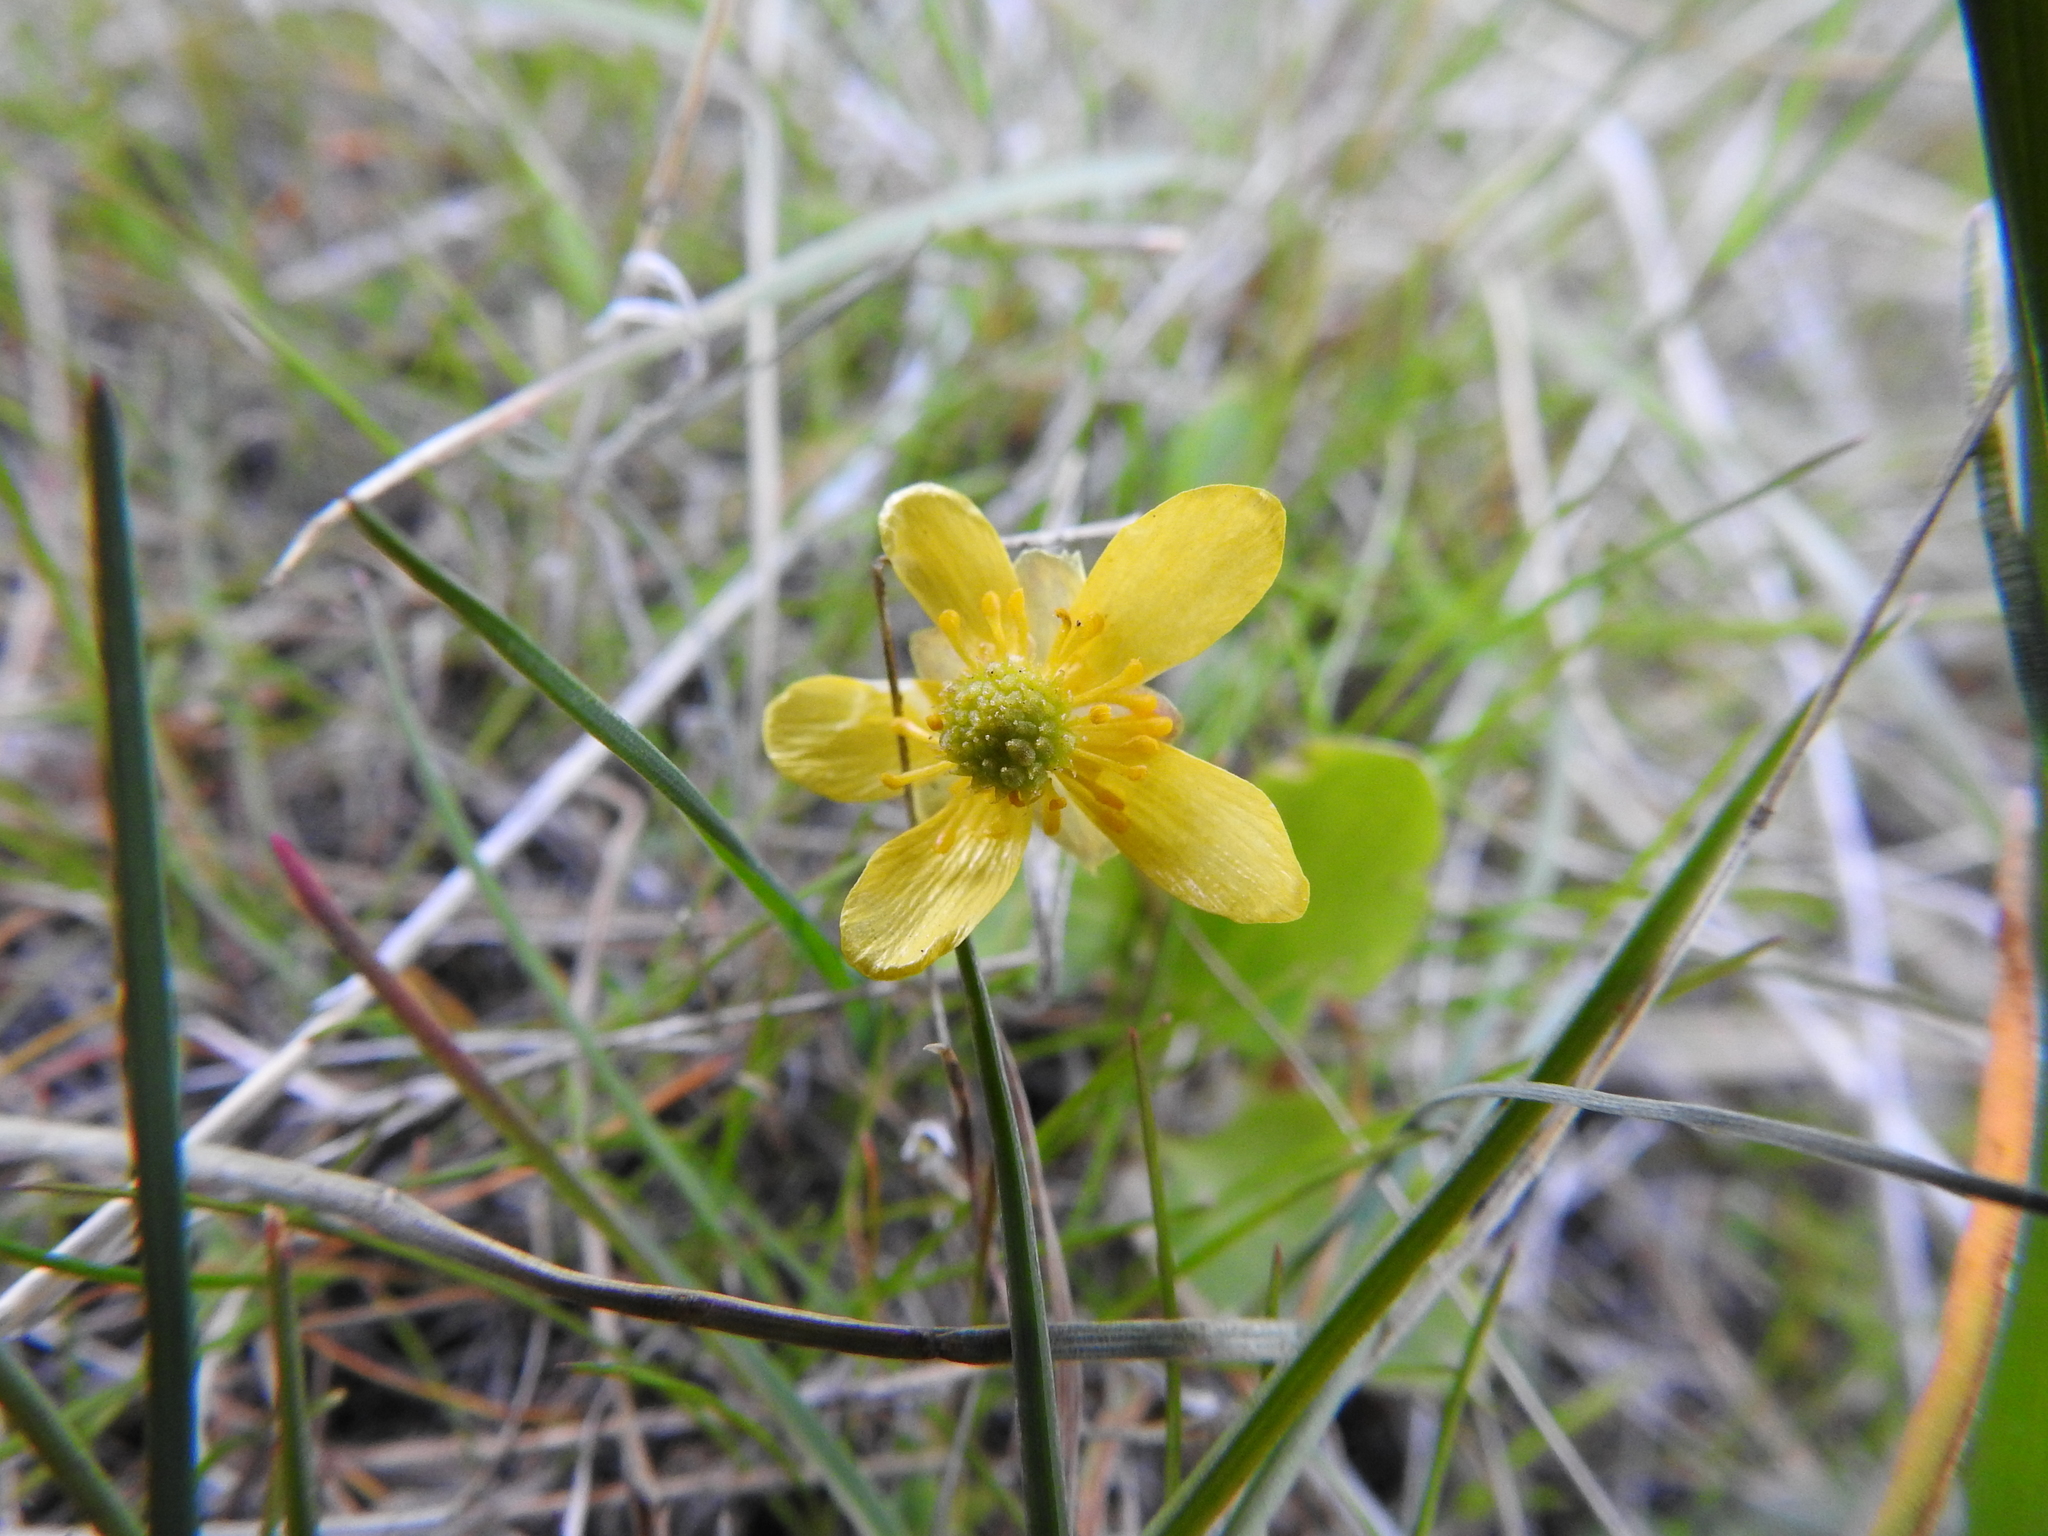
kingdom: Plantae
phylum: Tracheophyta
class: Magnoliopsida
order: Ranunculales
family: Ranunculaceae
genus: Ranunculus
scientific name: Ranunculus glaberrimus
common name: Sagebrush buttercup
